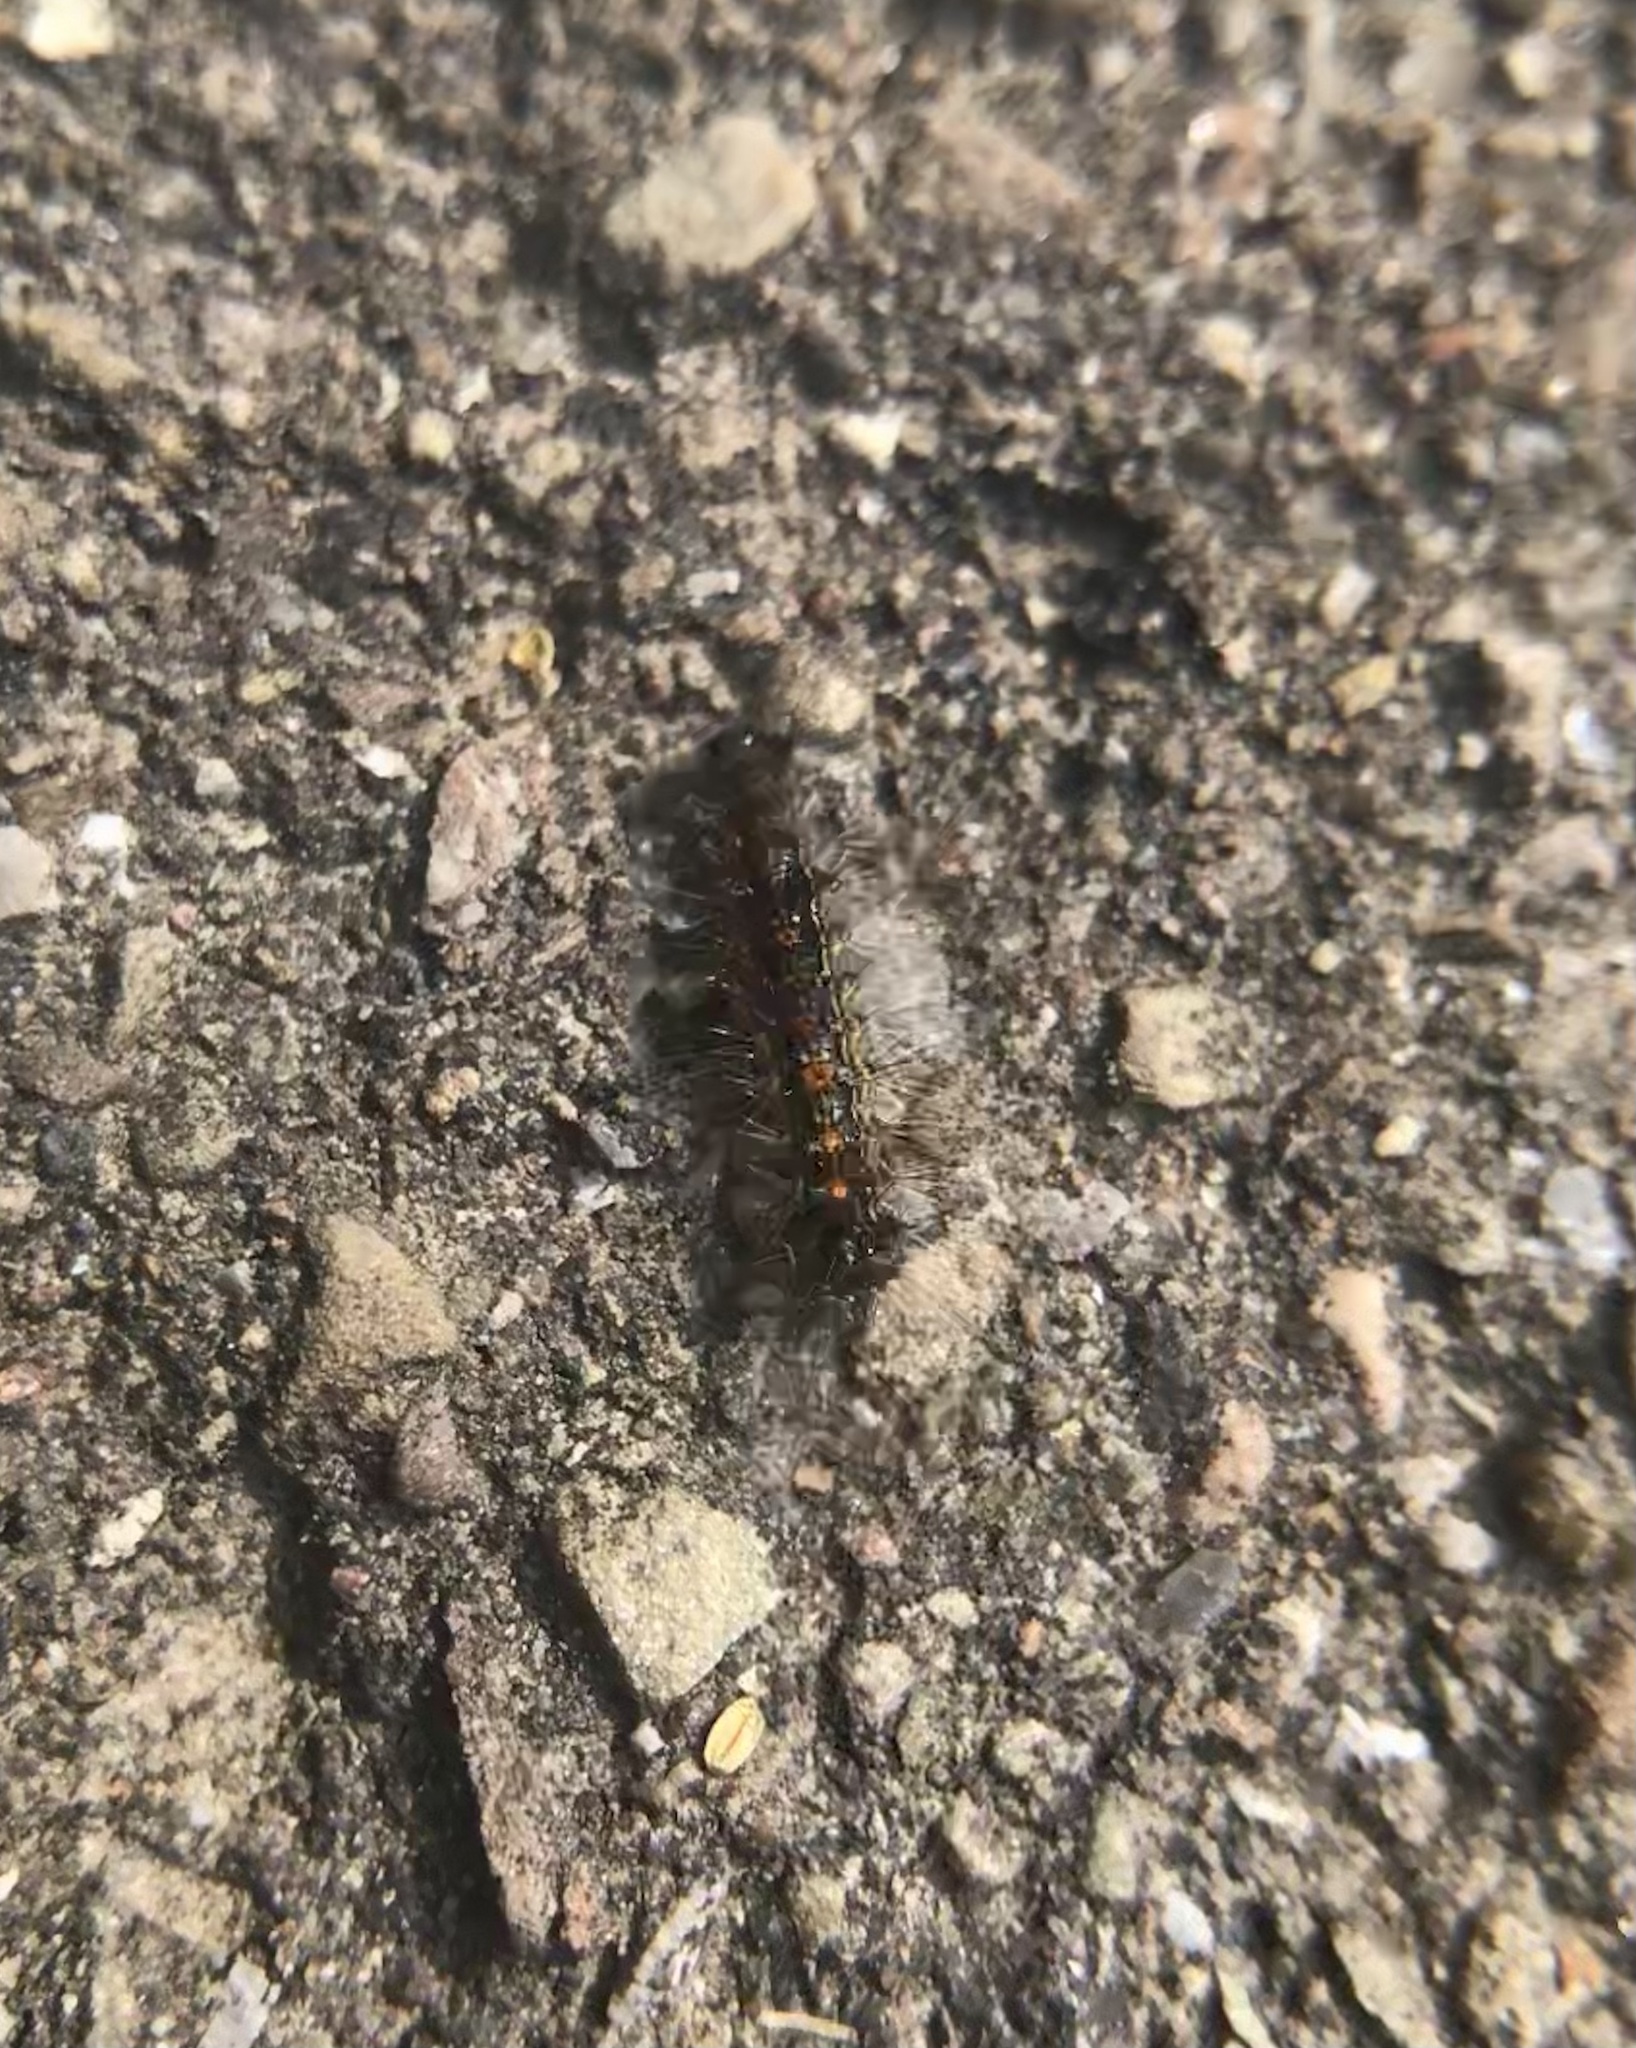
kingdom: Animalia
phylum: Arthropoda
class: Insecta
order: Lepidoptera
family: Erebidae
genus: Lymantria
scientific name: Lymantria dispar
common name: Gypsy moth
